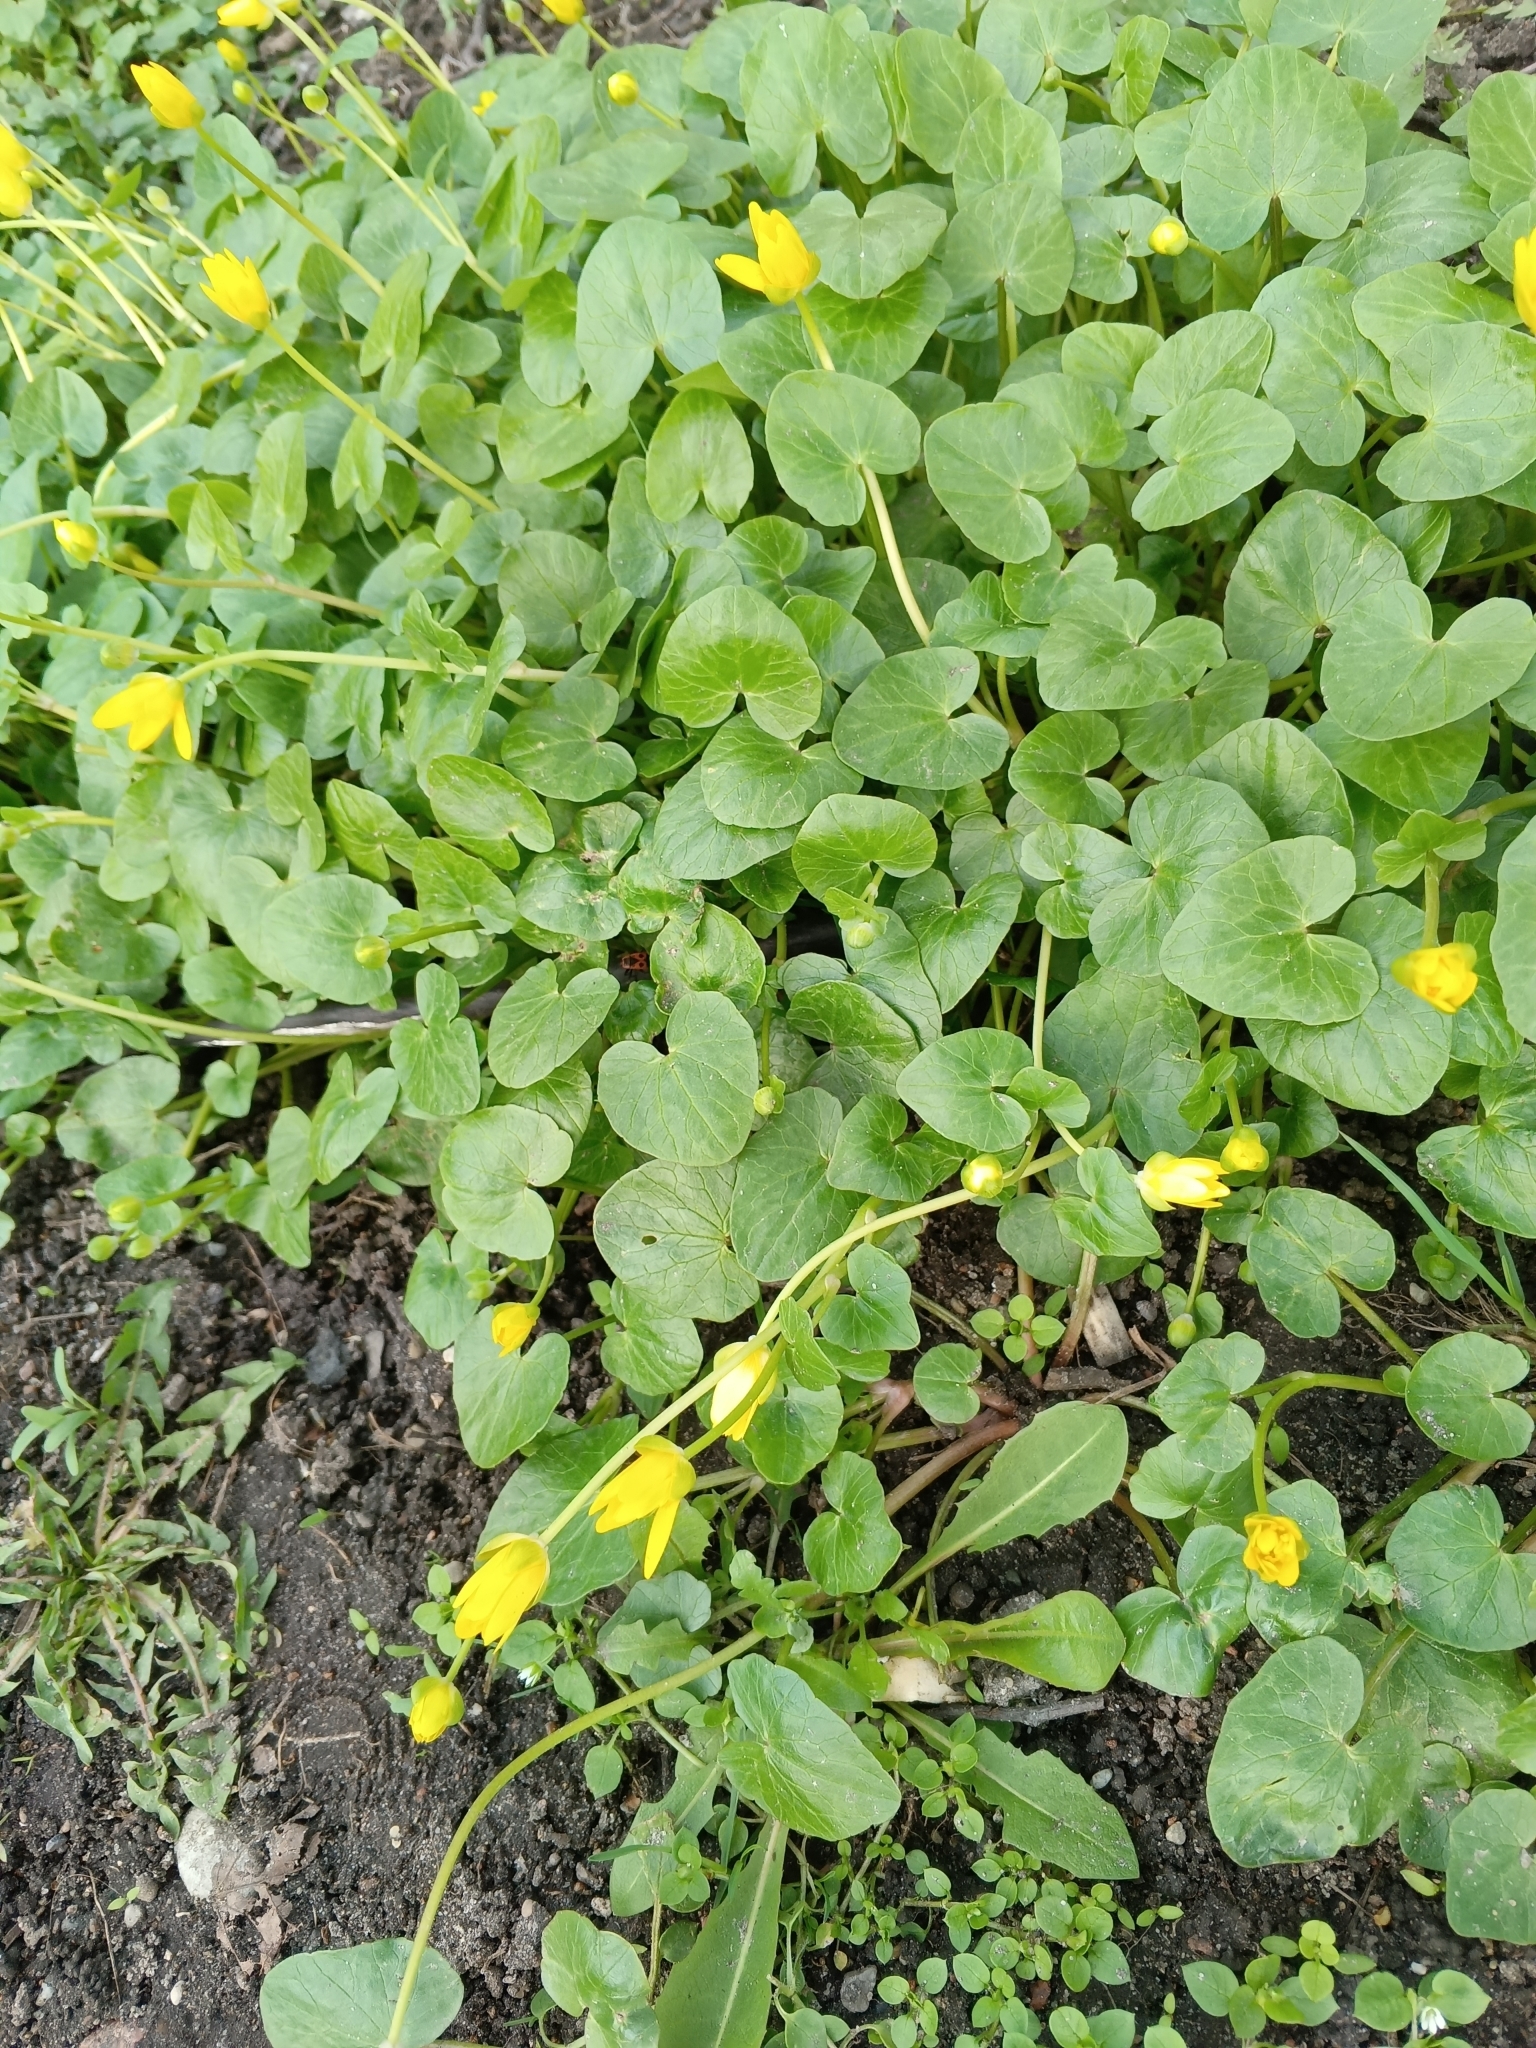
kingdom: Plantae
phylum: Tracheophyta
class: Magnoliopsida
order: Ranunculales
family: Ranunculaceae
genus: Ficaria
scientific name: Ficaria verna
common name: Lesser celandine
